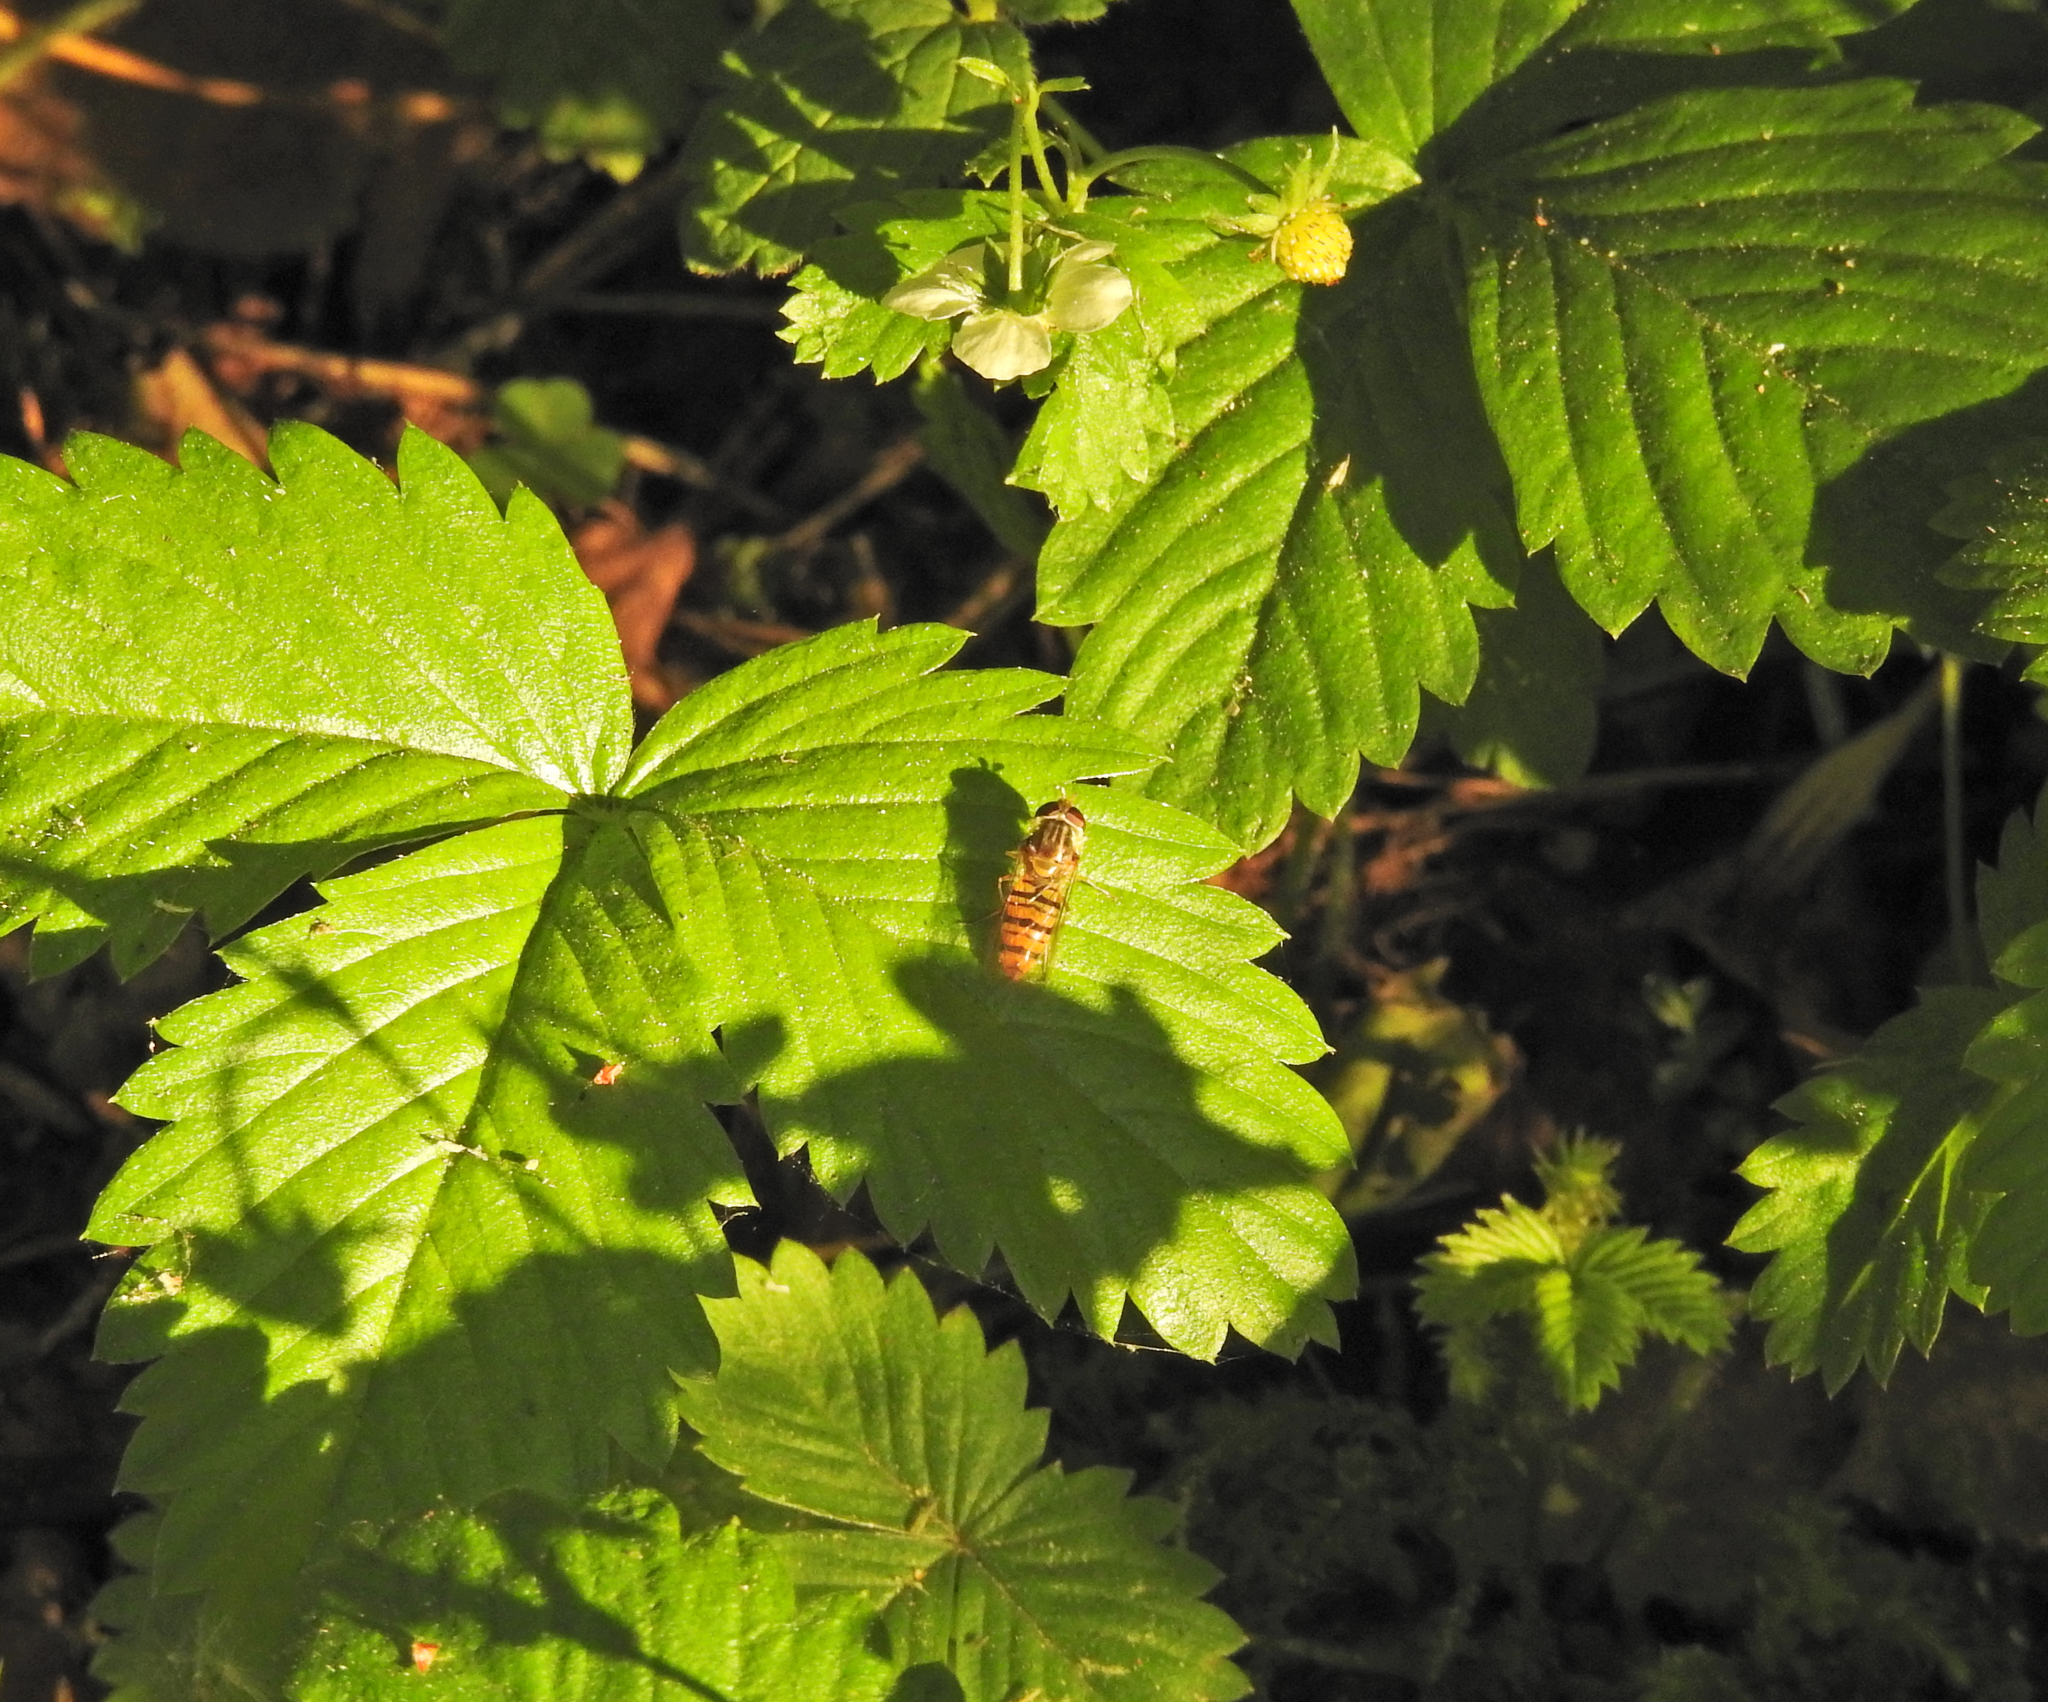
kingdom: Animalia
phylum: Arthropoda
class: Insecta
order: Diptera
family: Syrphidae
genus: Episyrphus
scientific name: Episyrphus balteatus
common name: Marmalade hoverfly
